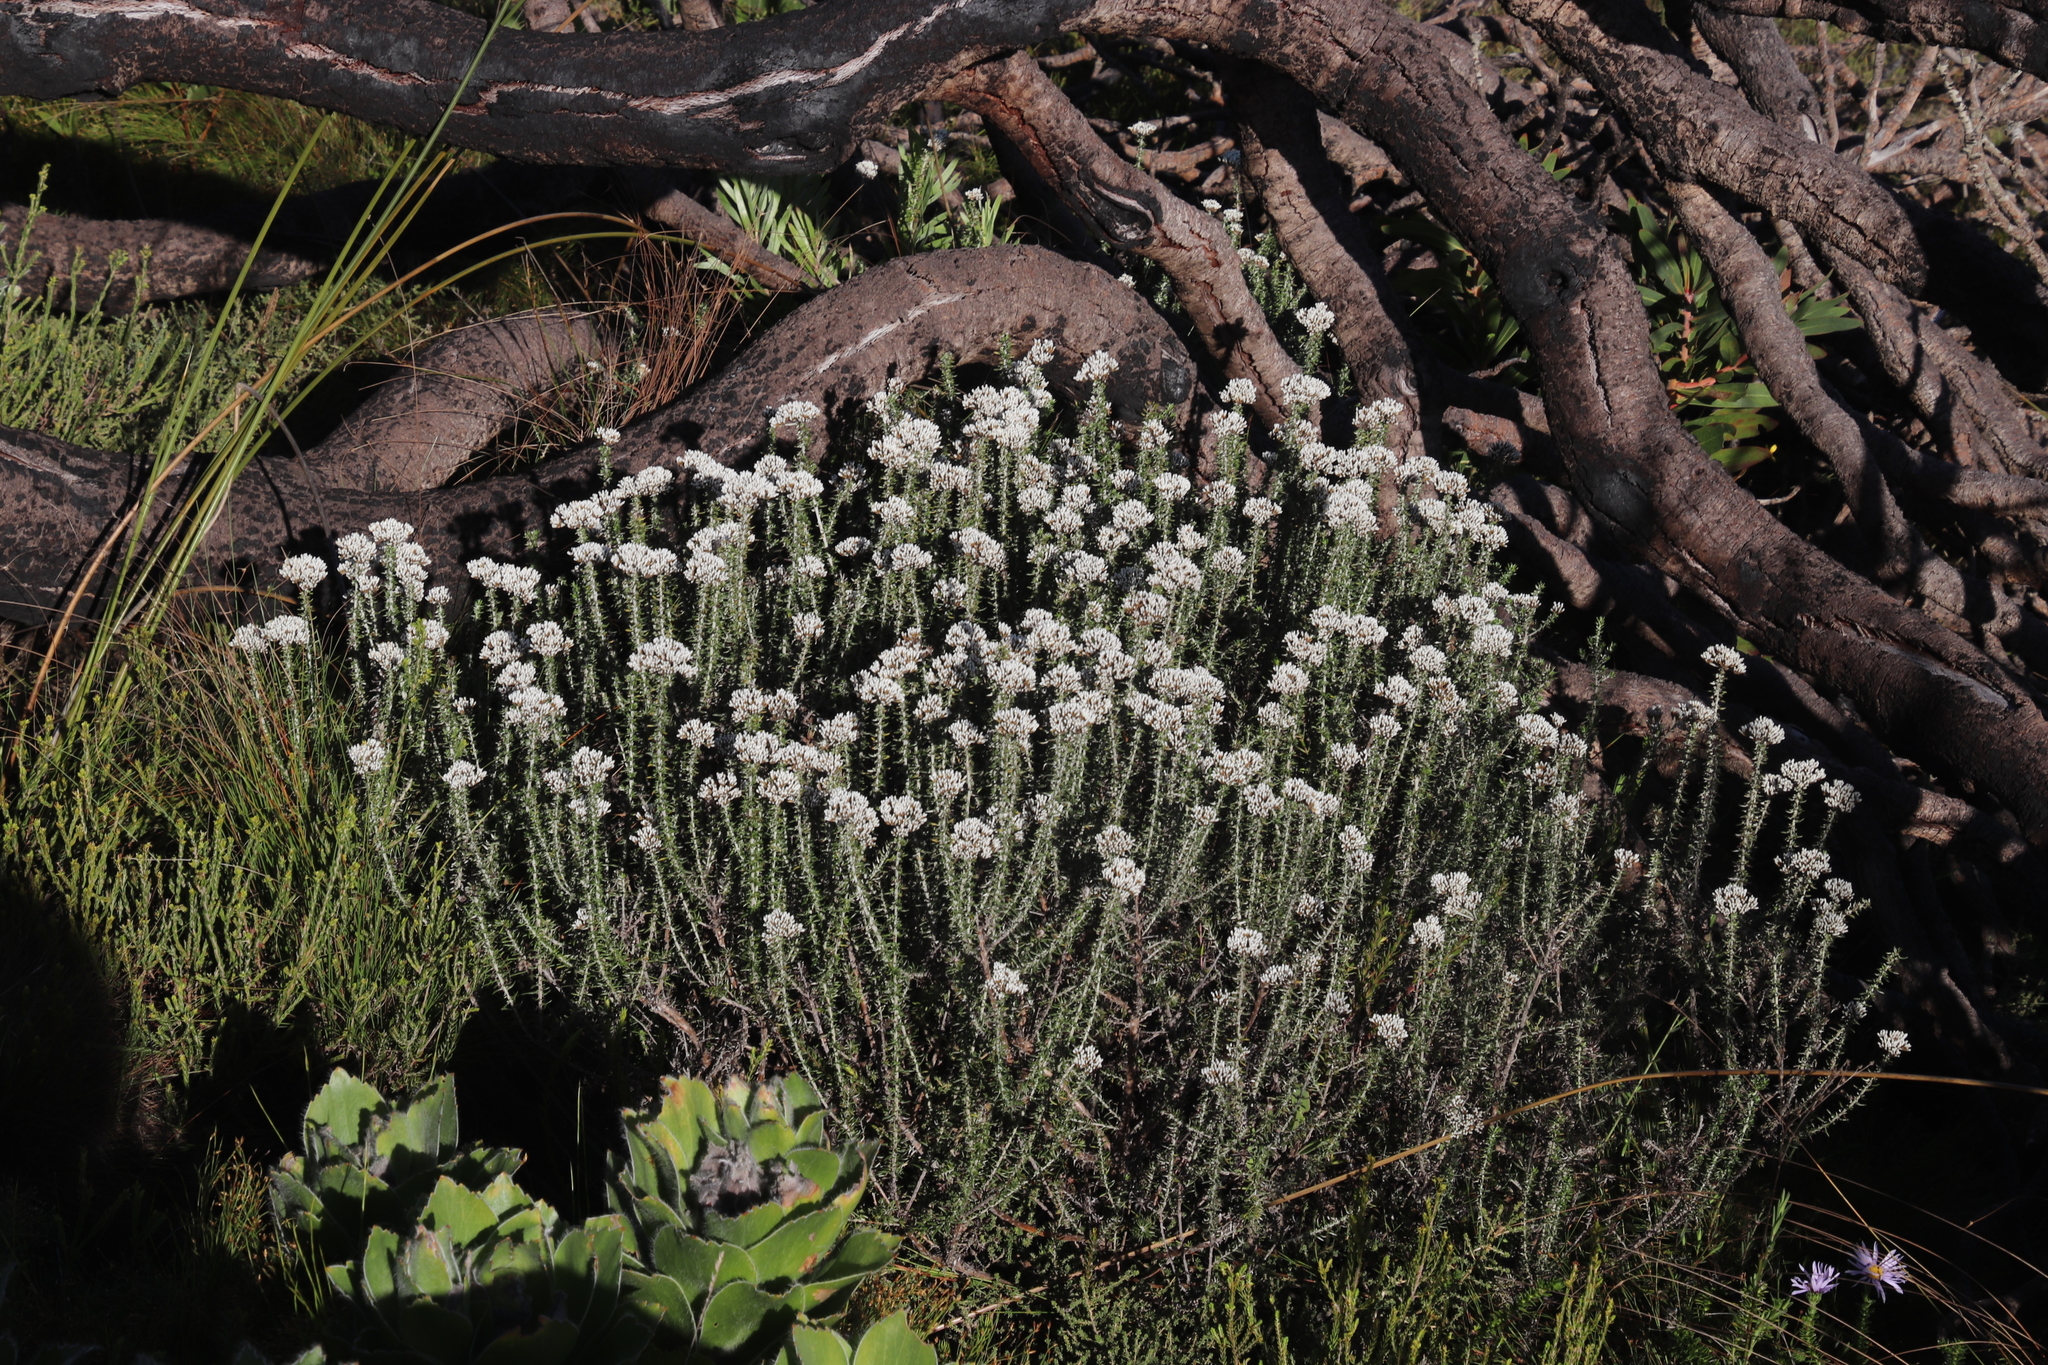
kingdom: Plantae
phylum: Tracheophyta
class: Magnoliopsida
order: Asterales
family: Asteraceae
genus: Metalasia
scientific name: Metalasia densa
